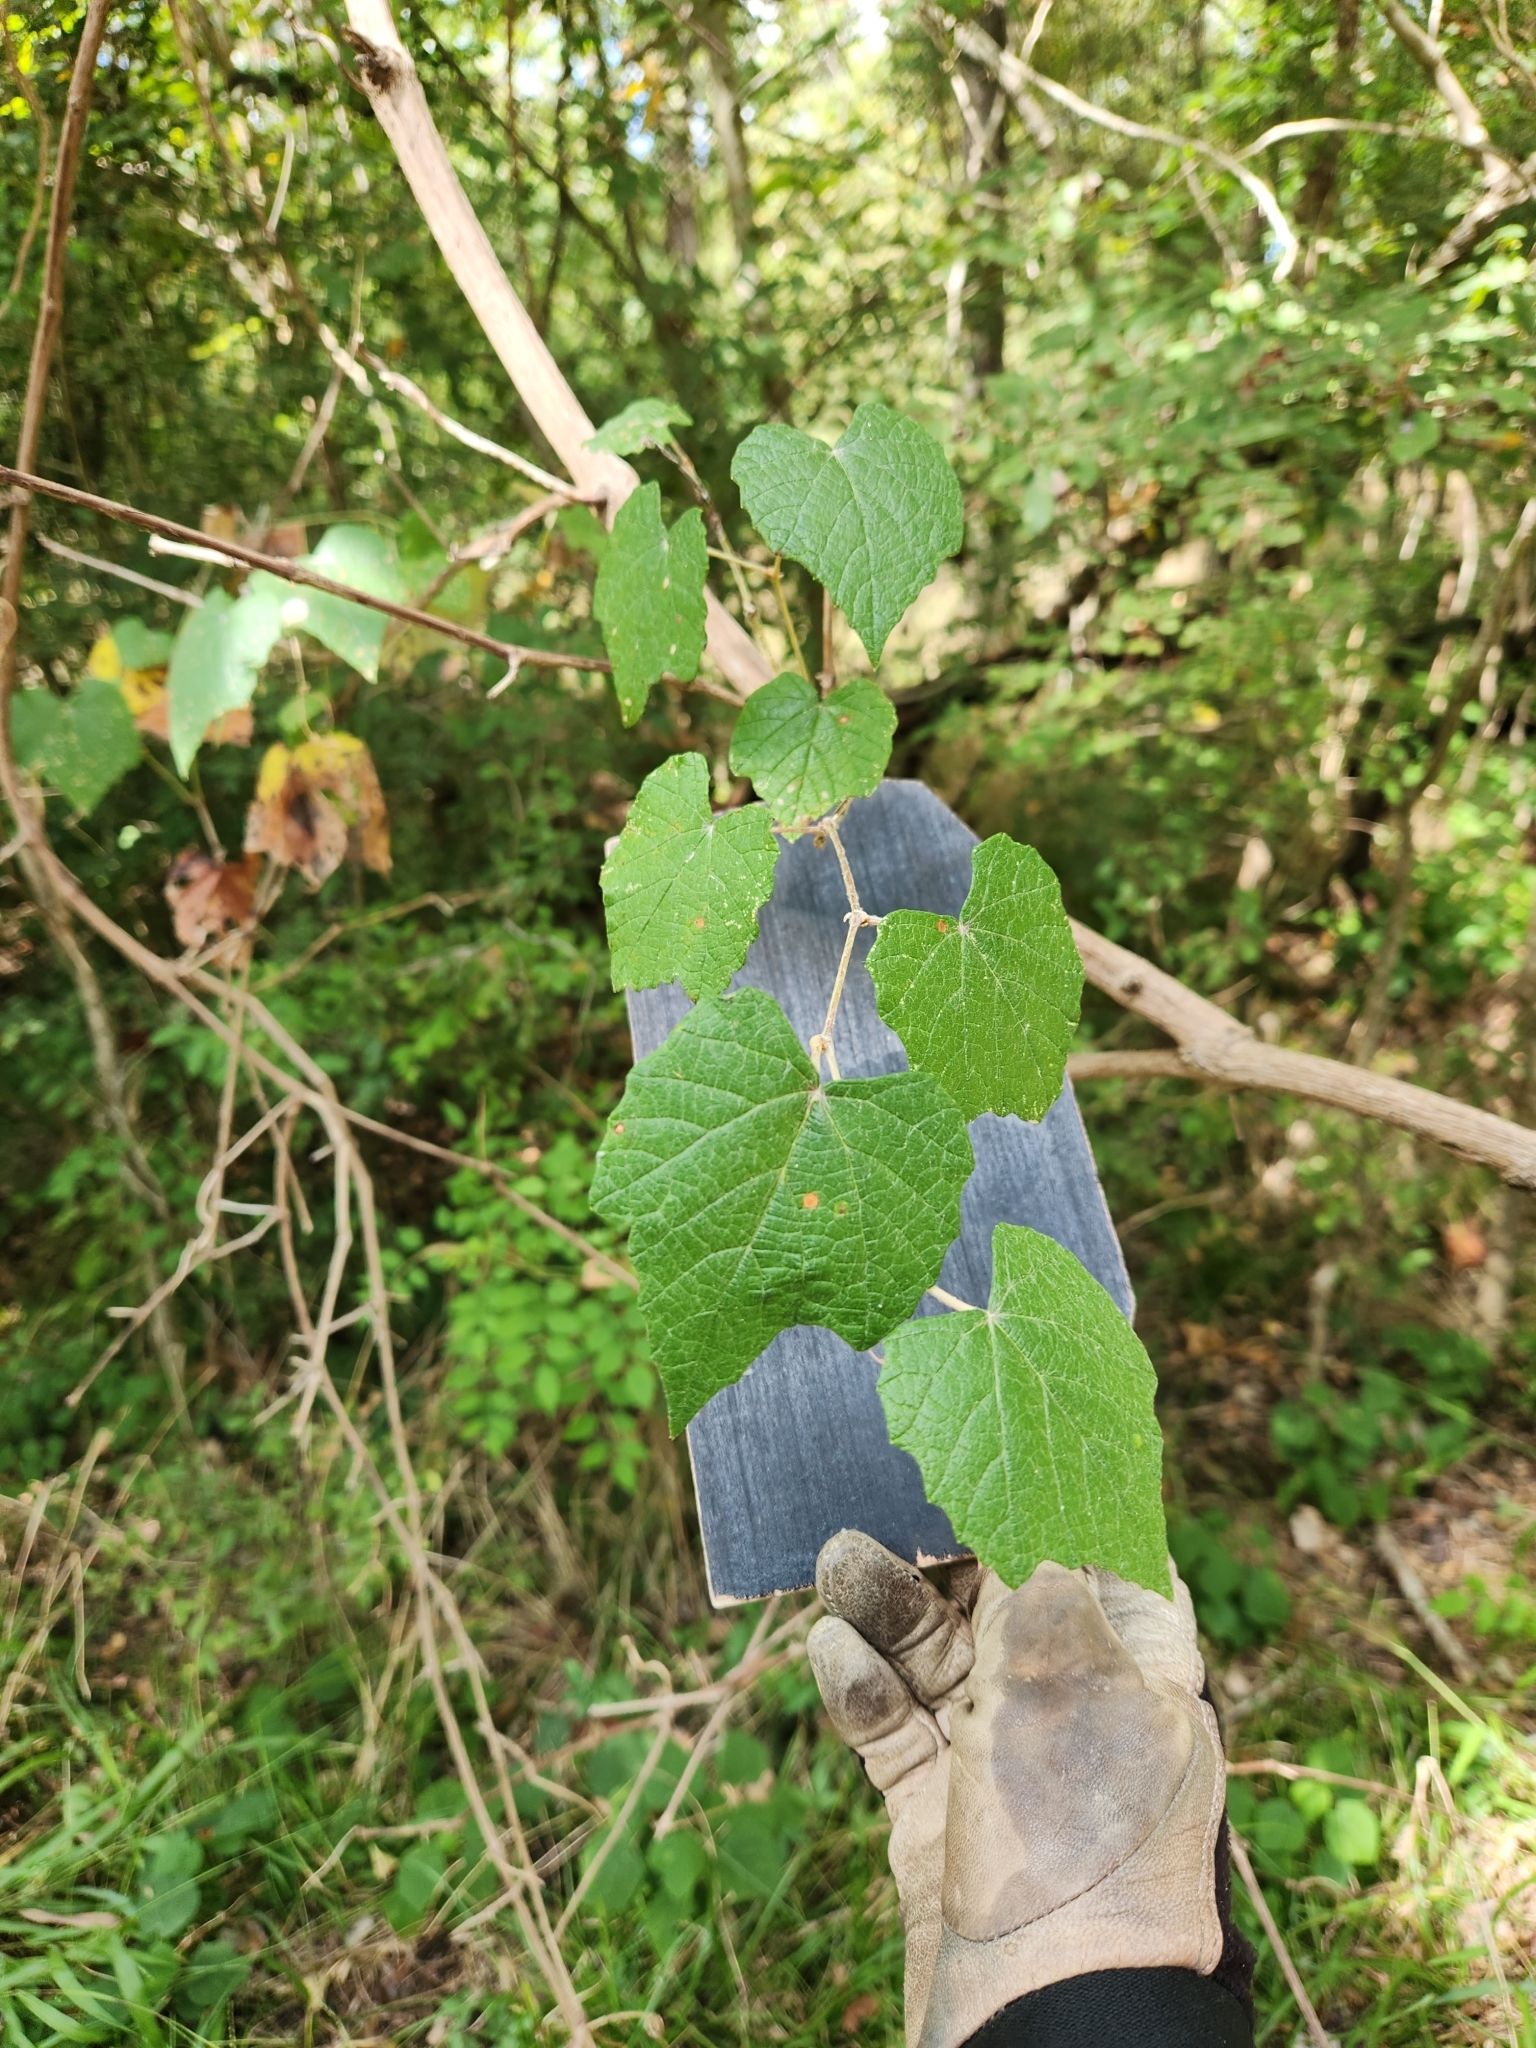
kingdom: Plantae
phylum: Tracheophyta
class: Magnoliopsida
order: Vitales
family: Vitaceae
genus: Vitis
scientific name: Vitis mustangensis
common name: Mustang grape
